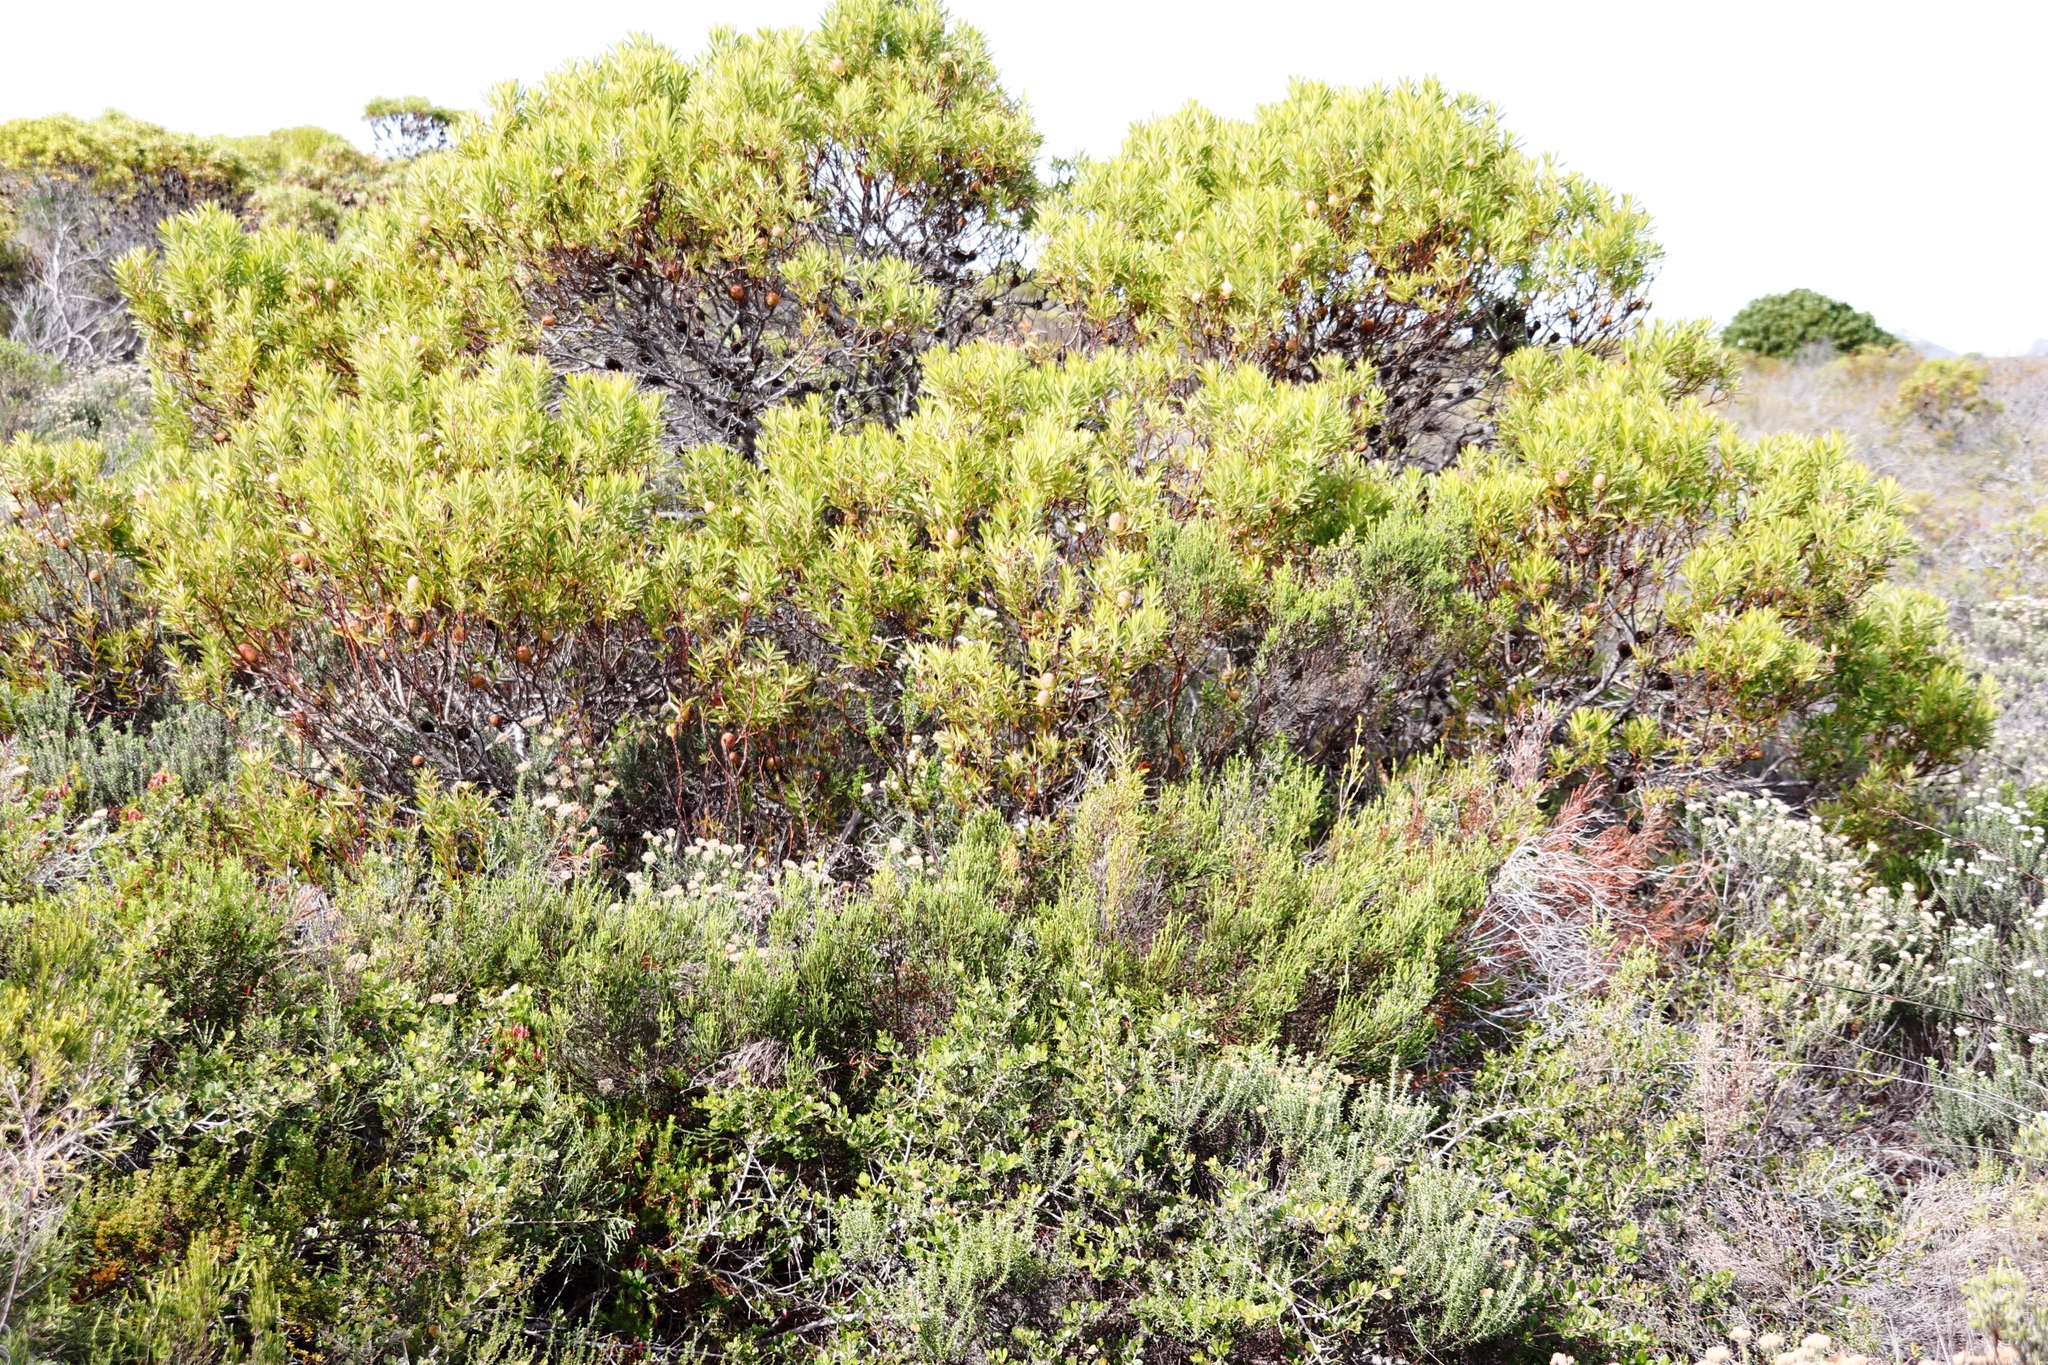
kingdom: Plantae
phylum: Tracheophyta
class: Magnoliopsida
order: Proteales
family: Proteaceae
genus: Leucadendron
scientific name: Leucadendron coniferum
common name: Dune conebush
